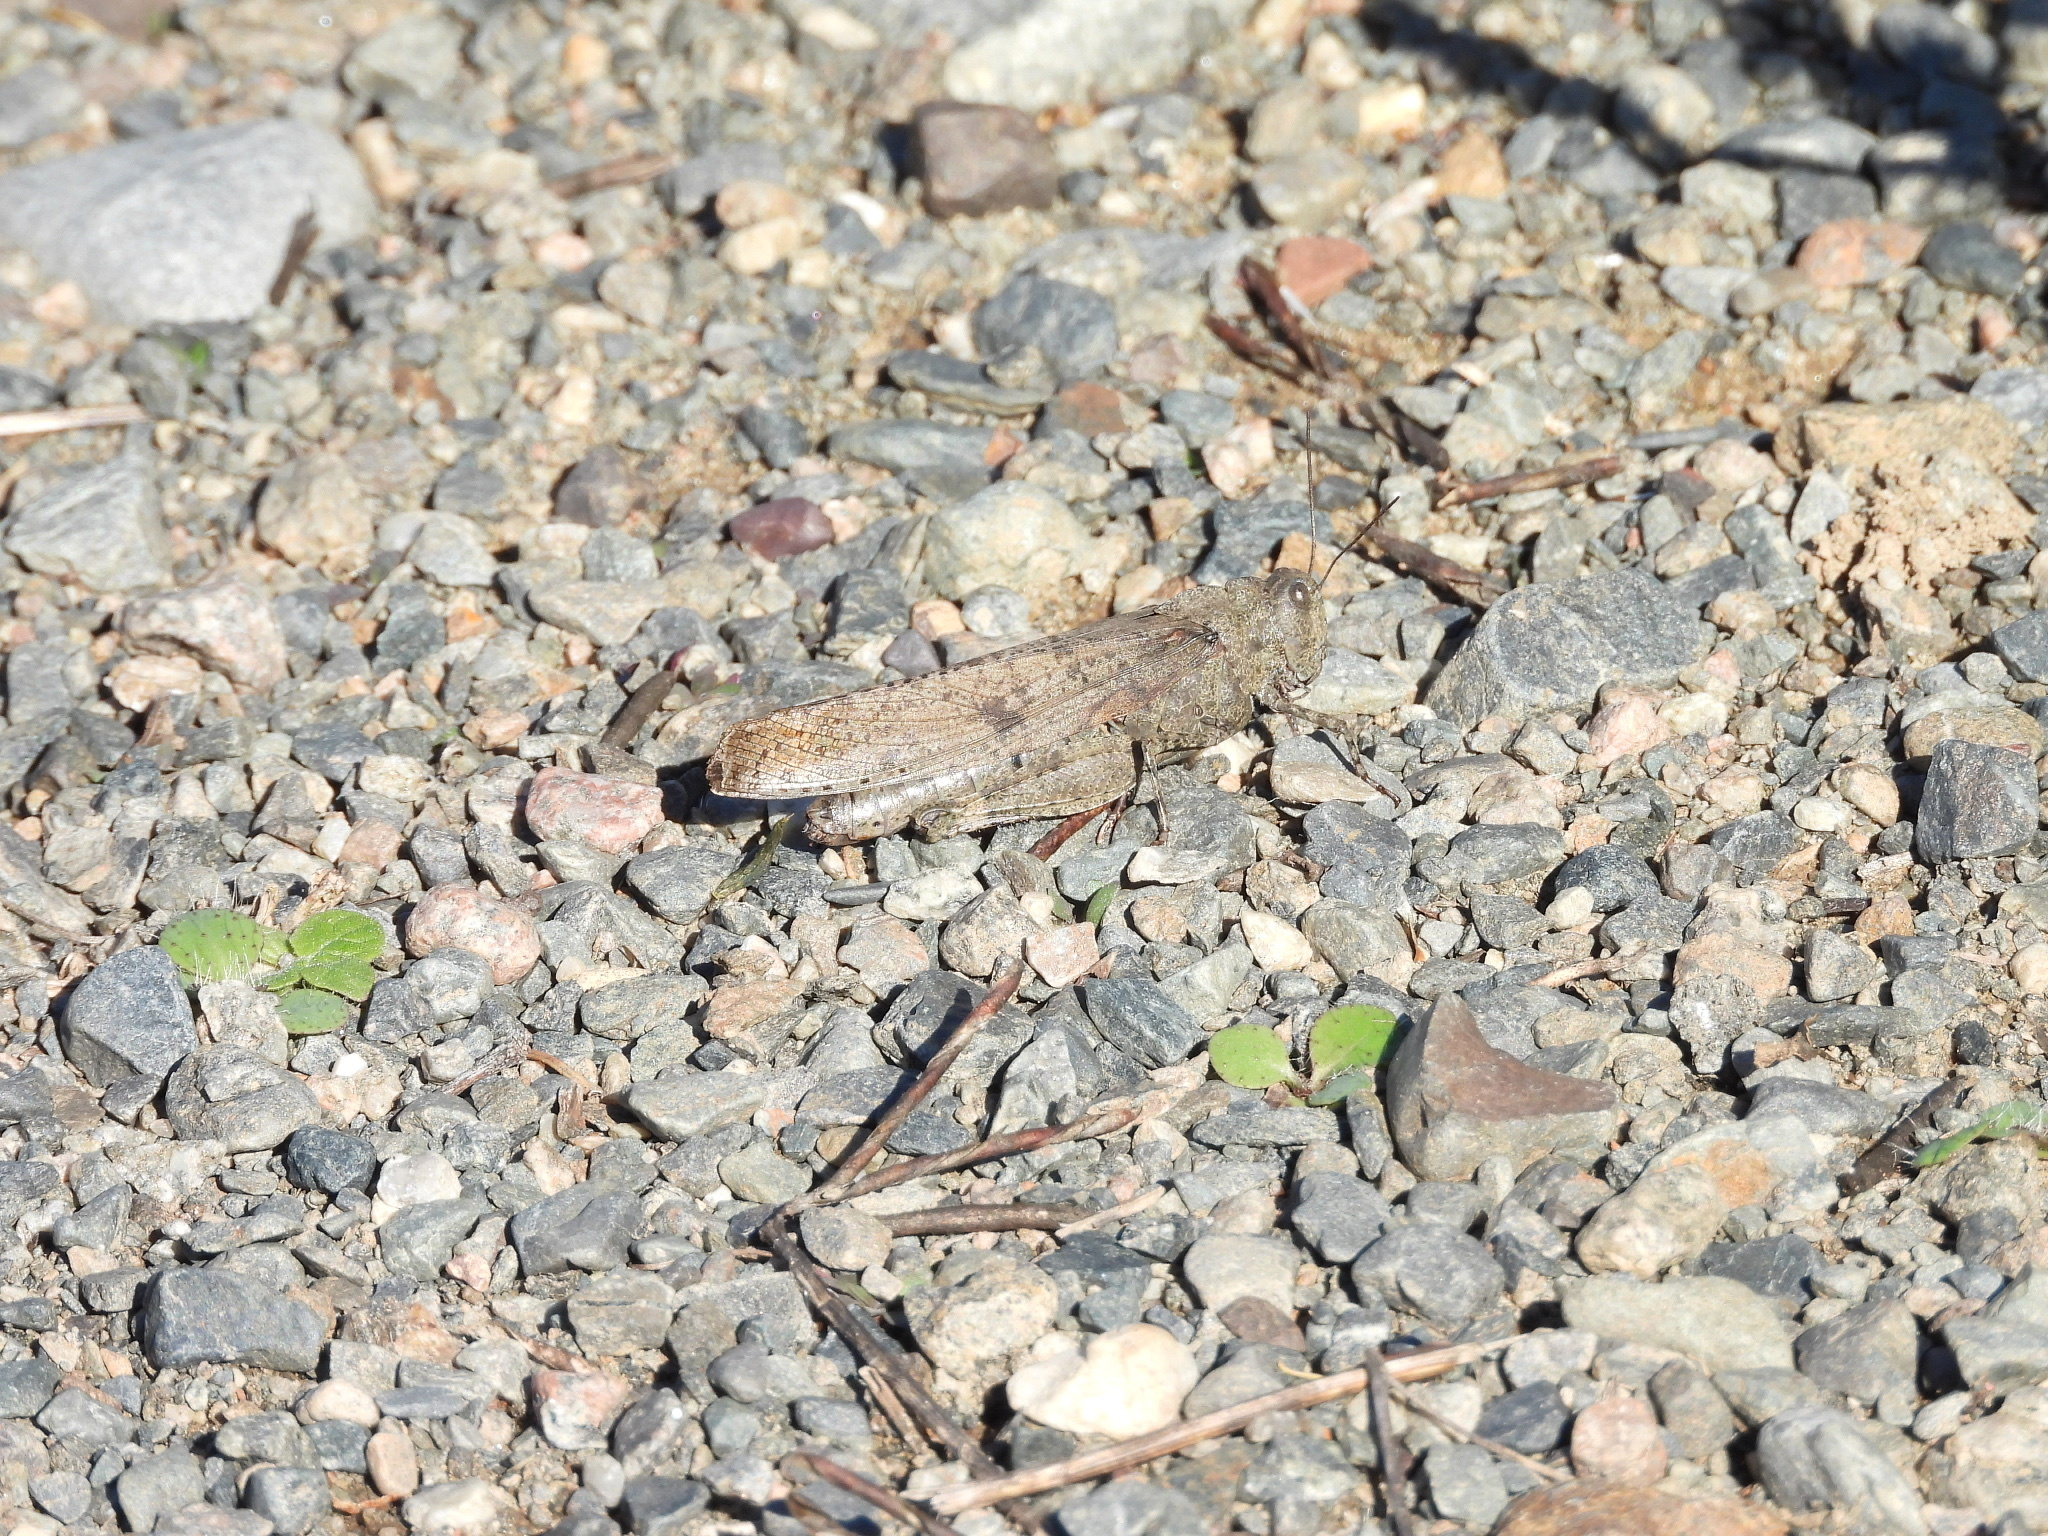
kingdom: Animalia
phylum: Arthropoda
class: Insecta
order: Orthoptera
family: Acrididae
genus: Dissosteira
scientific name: Dissosteira carolina
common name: Carolina grasshopper
